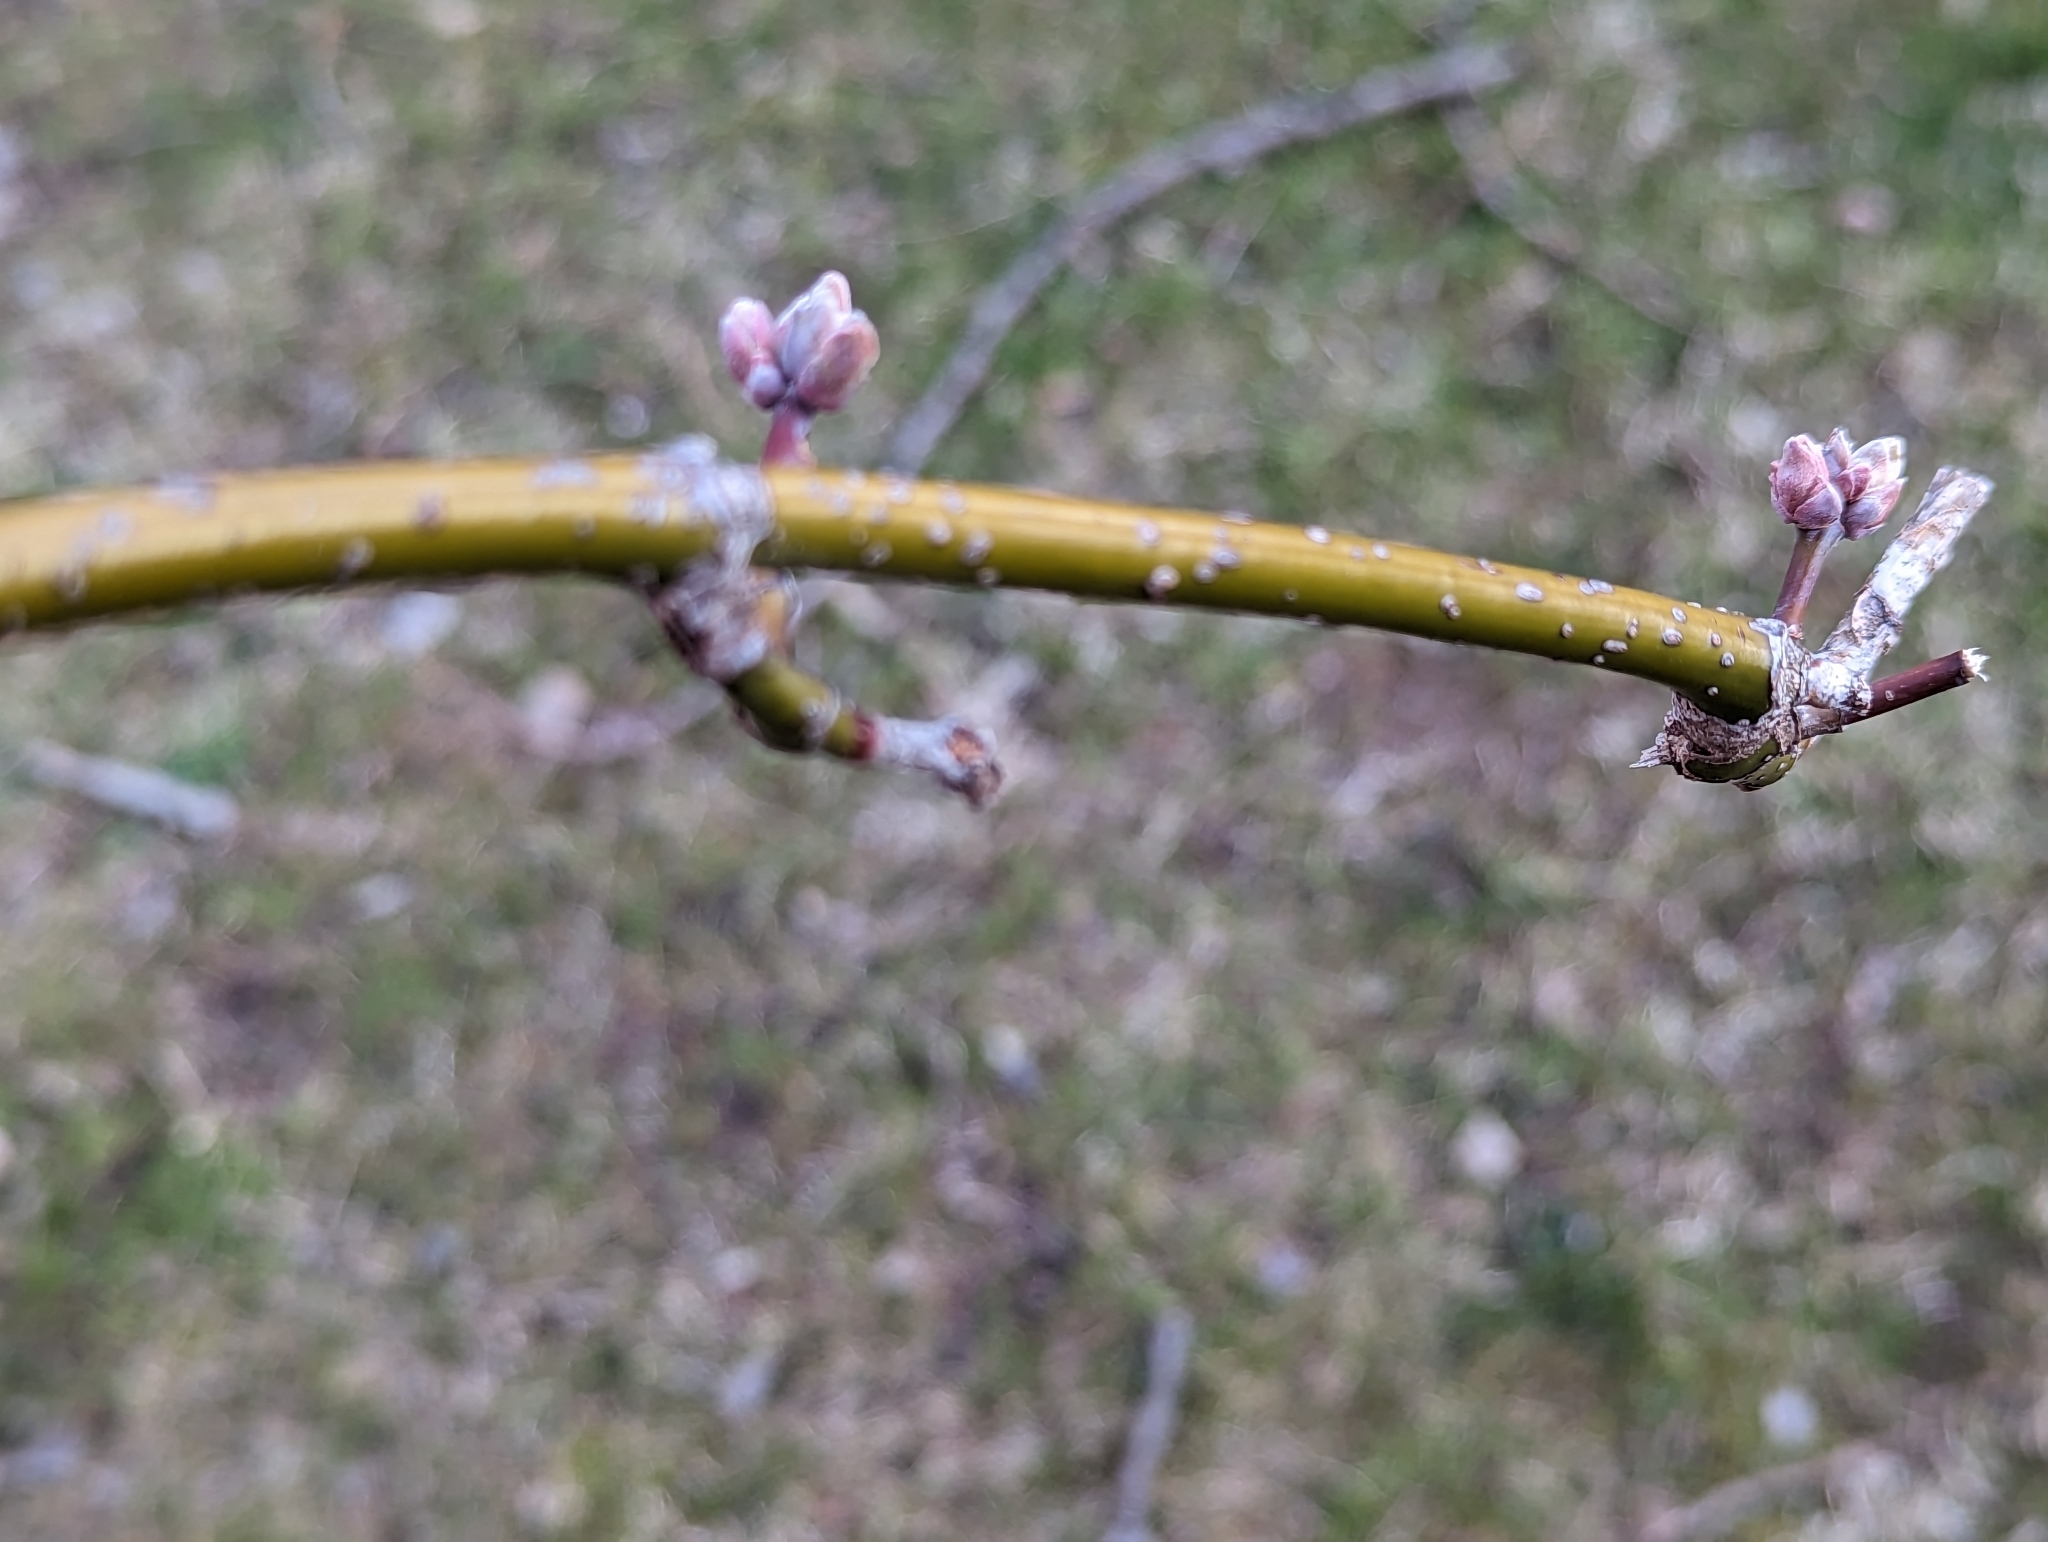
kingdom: Plantae
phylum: Tracheophyta
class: Magnoliopsida
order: Sapindales
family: Sapindaceae
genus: Acer
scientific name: Acer negundo
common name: Ashleaf maple
